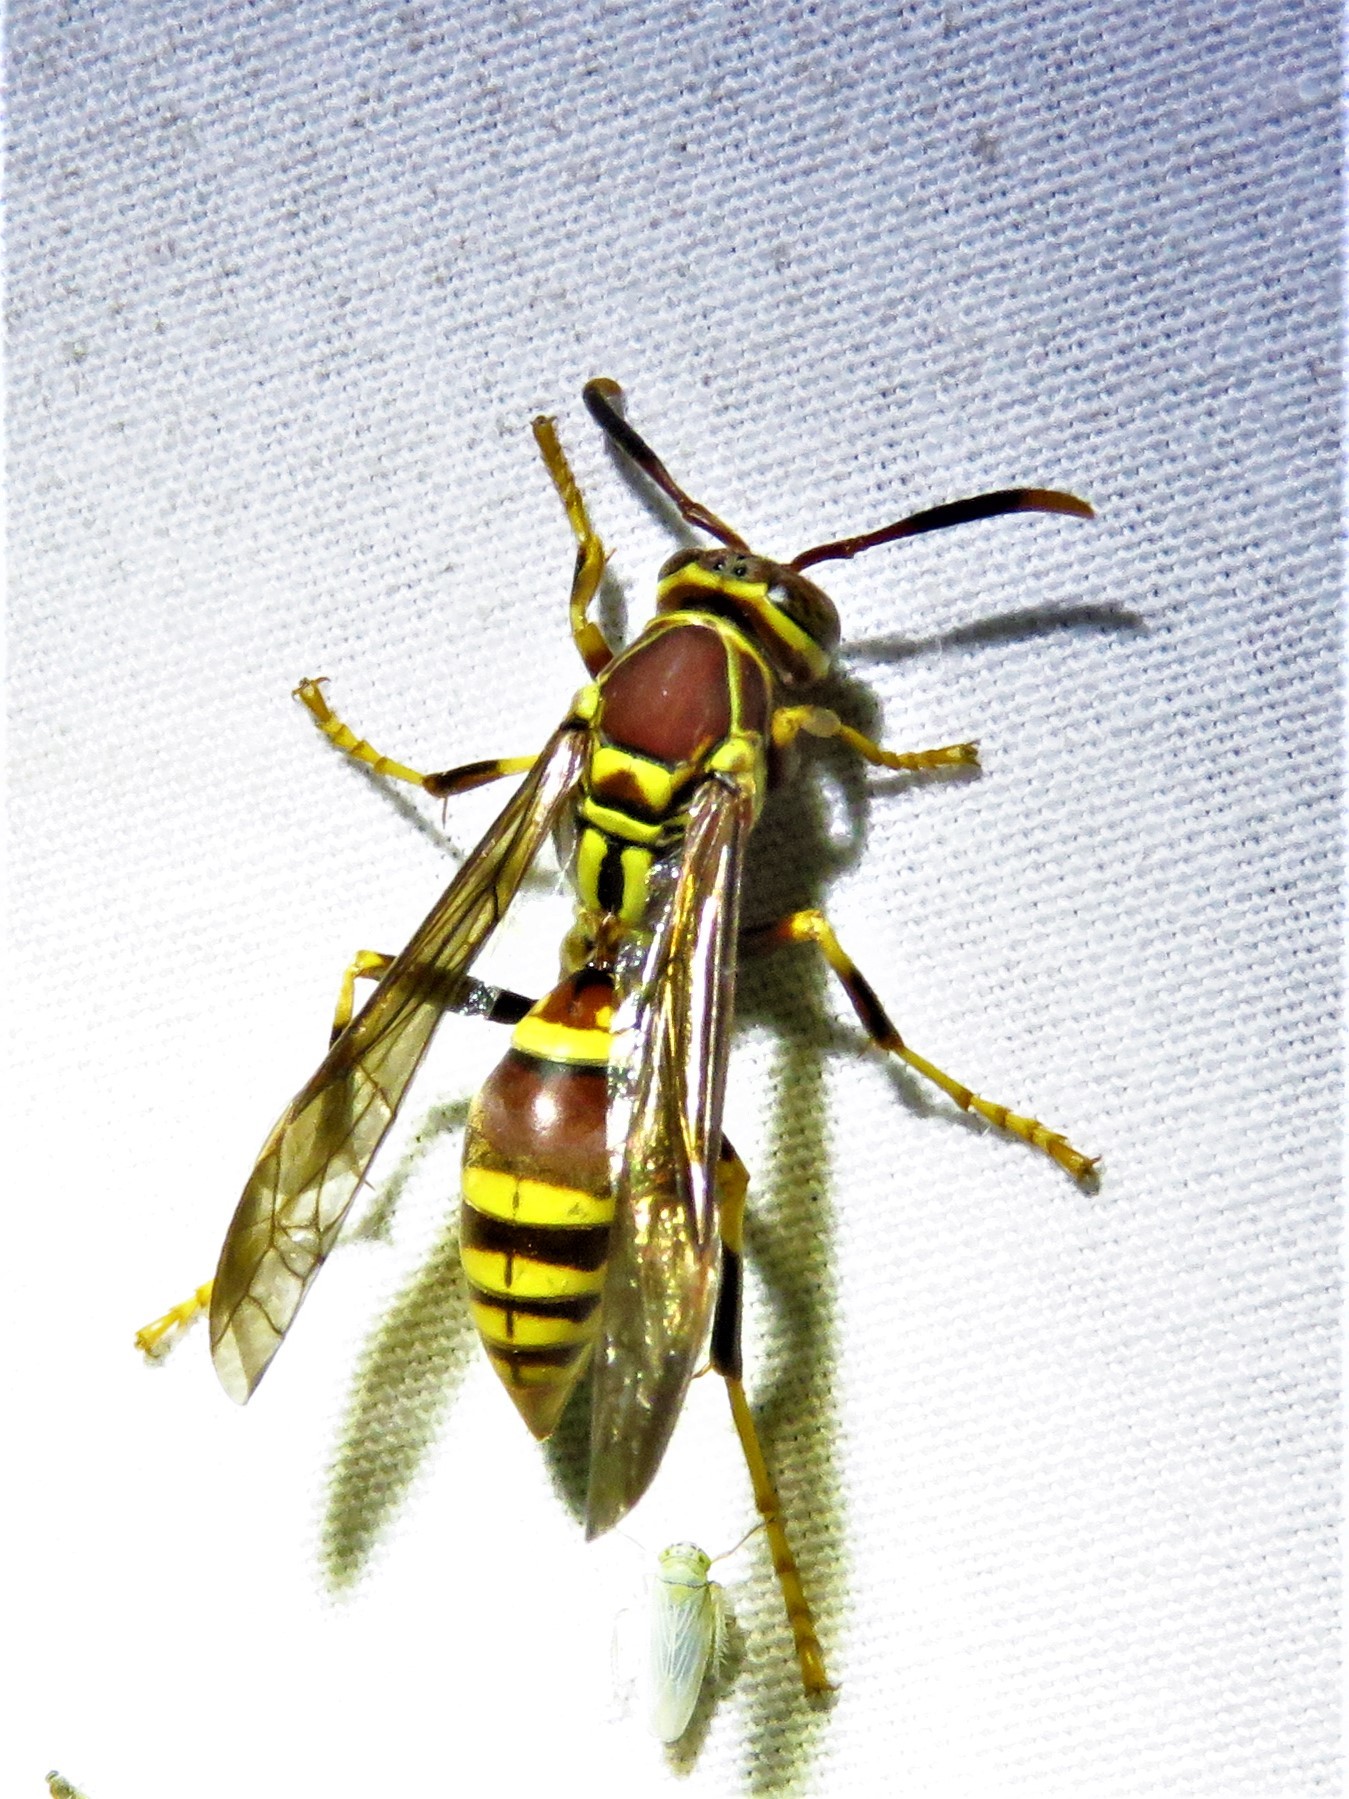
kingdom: Animalia
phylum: Arthropoda
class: Insecta
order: Hymenoptera
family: Eumenidae
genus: Polistes
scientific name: Polistes exclamans
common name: Paper wasp
